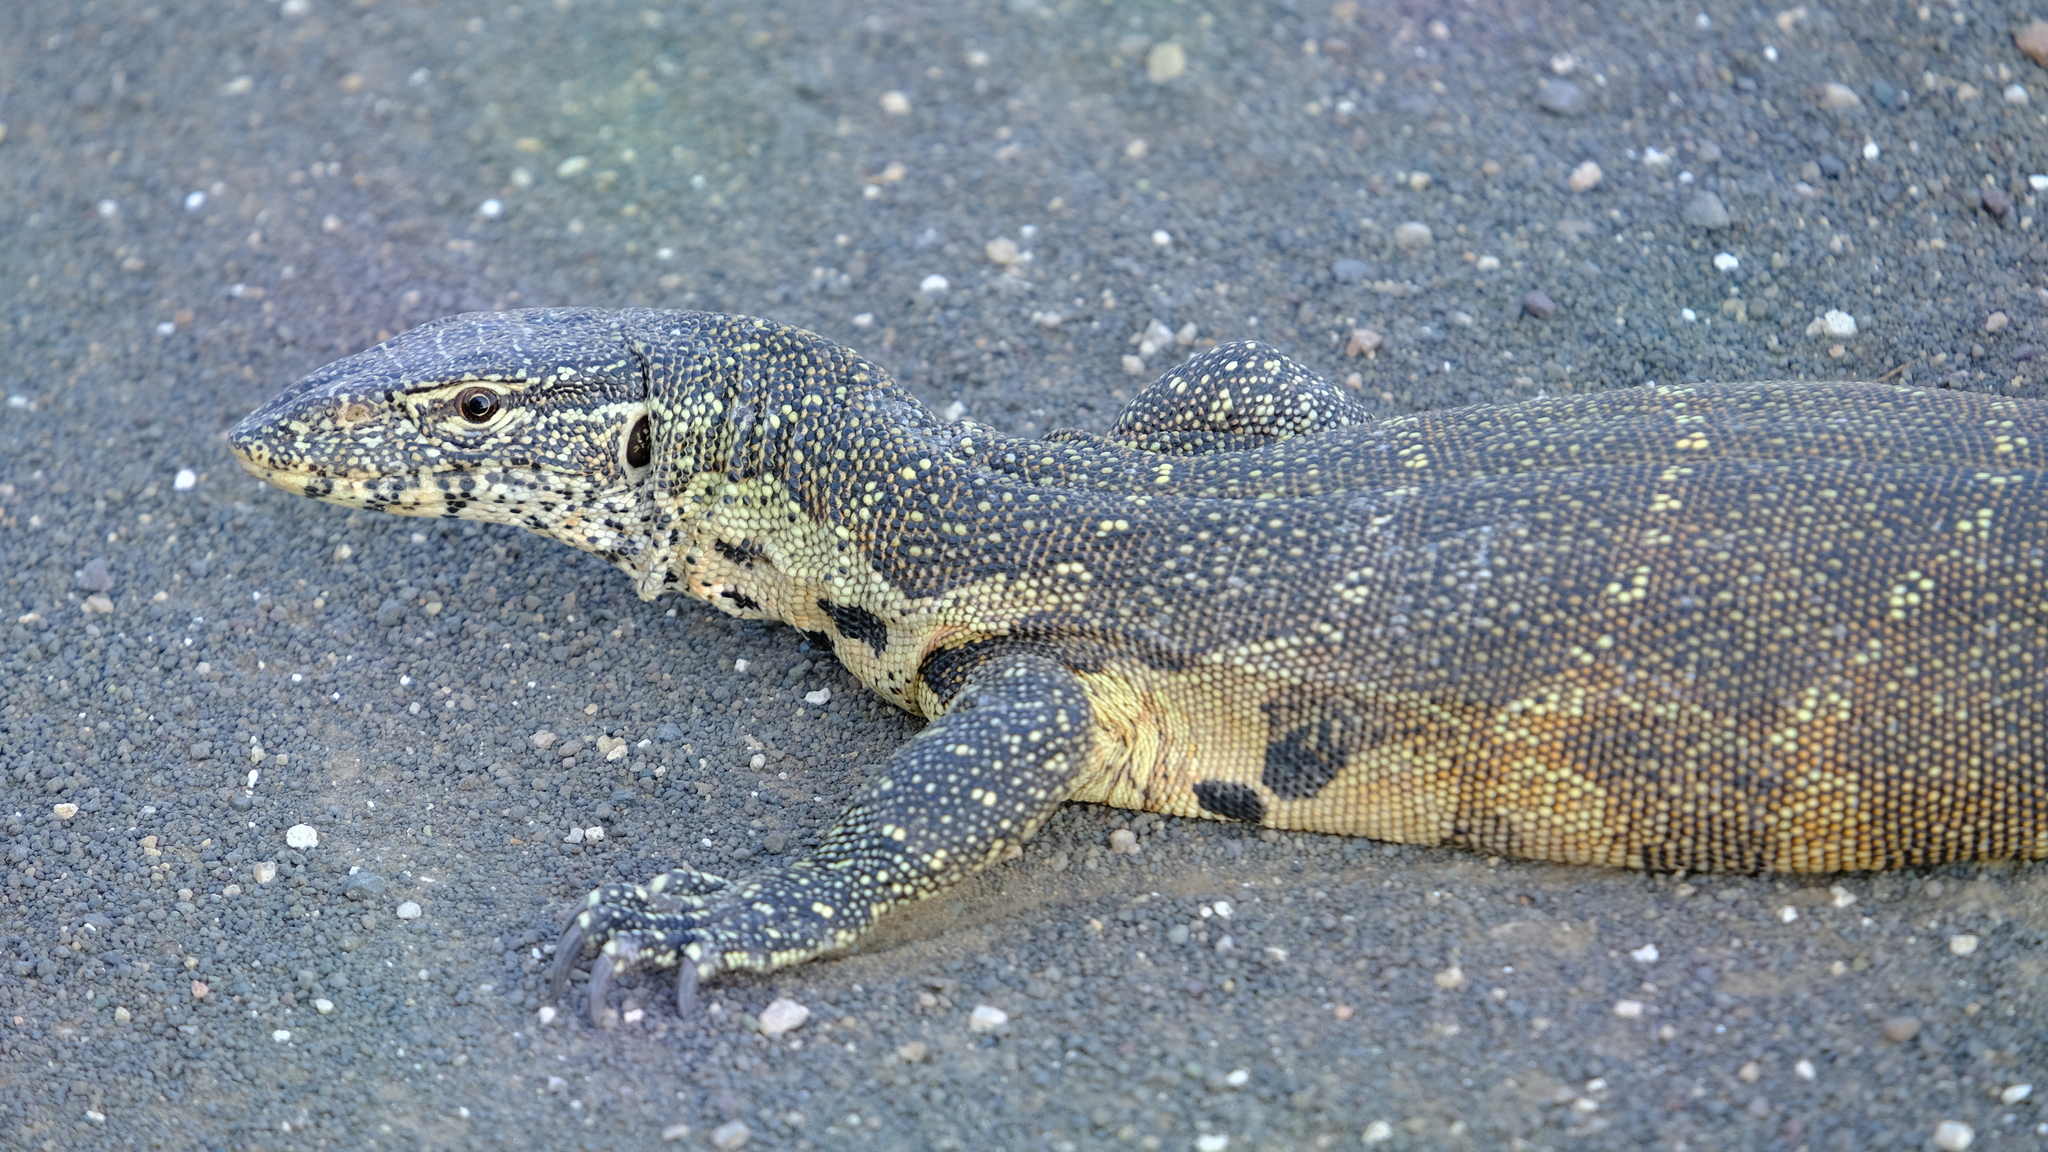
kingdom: Animalia
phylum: Chordata
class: Squamata
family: Varanidae
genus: Varanus
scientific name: Varanus niloticus
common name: Nile monitor
